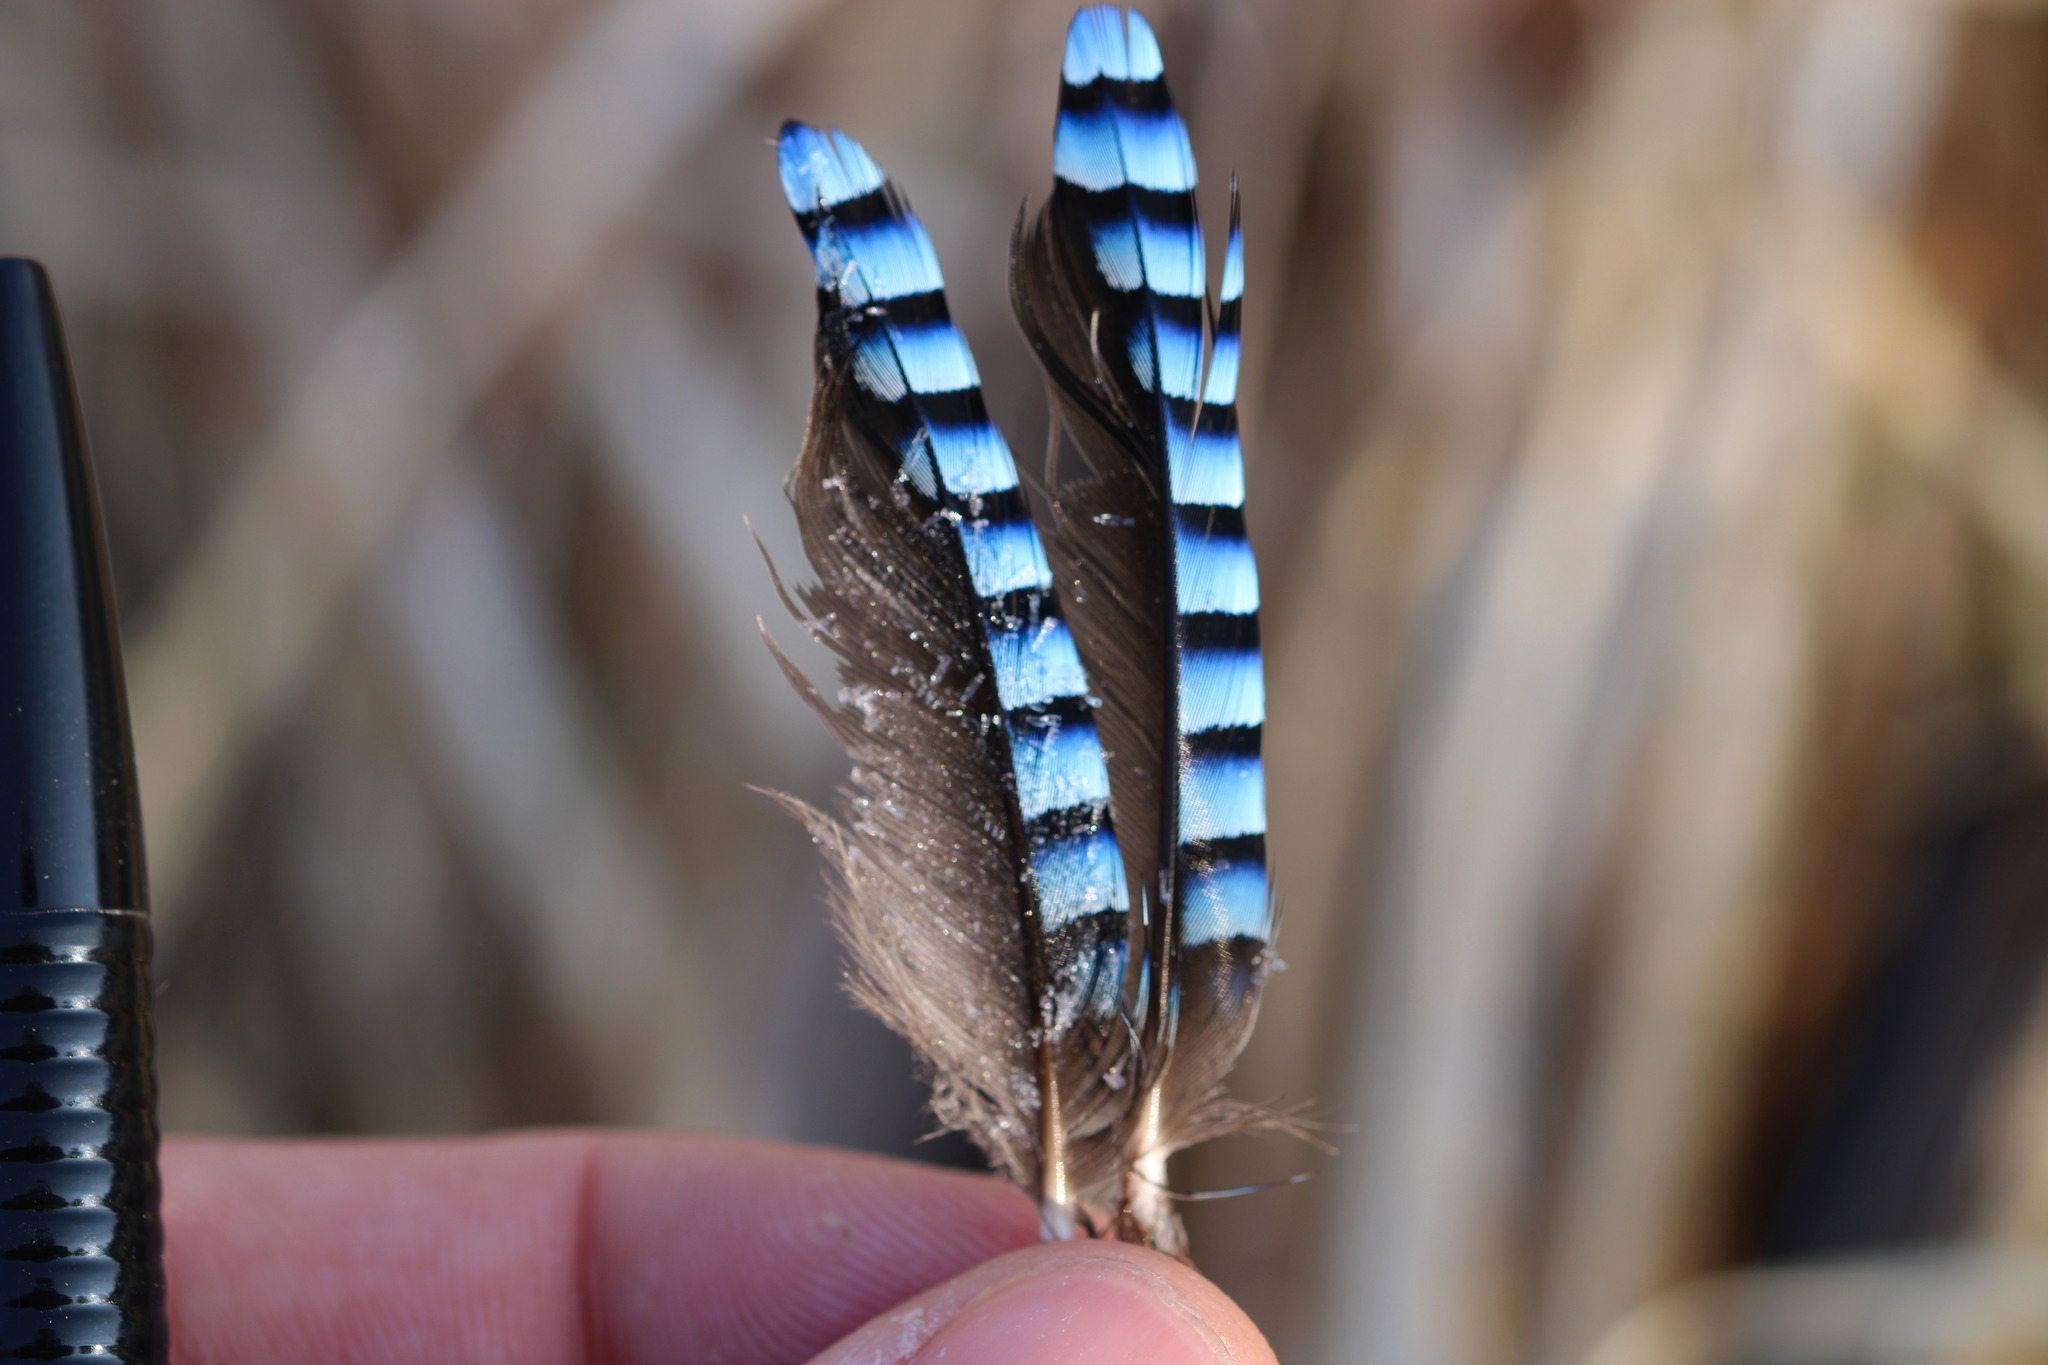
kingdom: Animalia
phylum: Chordata
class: Aves
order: Passeriformes
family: Corvidae
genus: Garrulus
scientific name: Garrulus glandarius
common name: Eurasian jay
